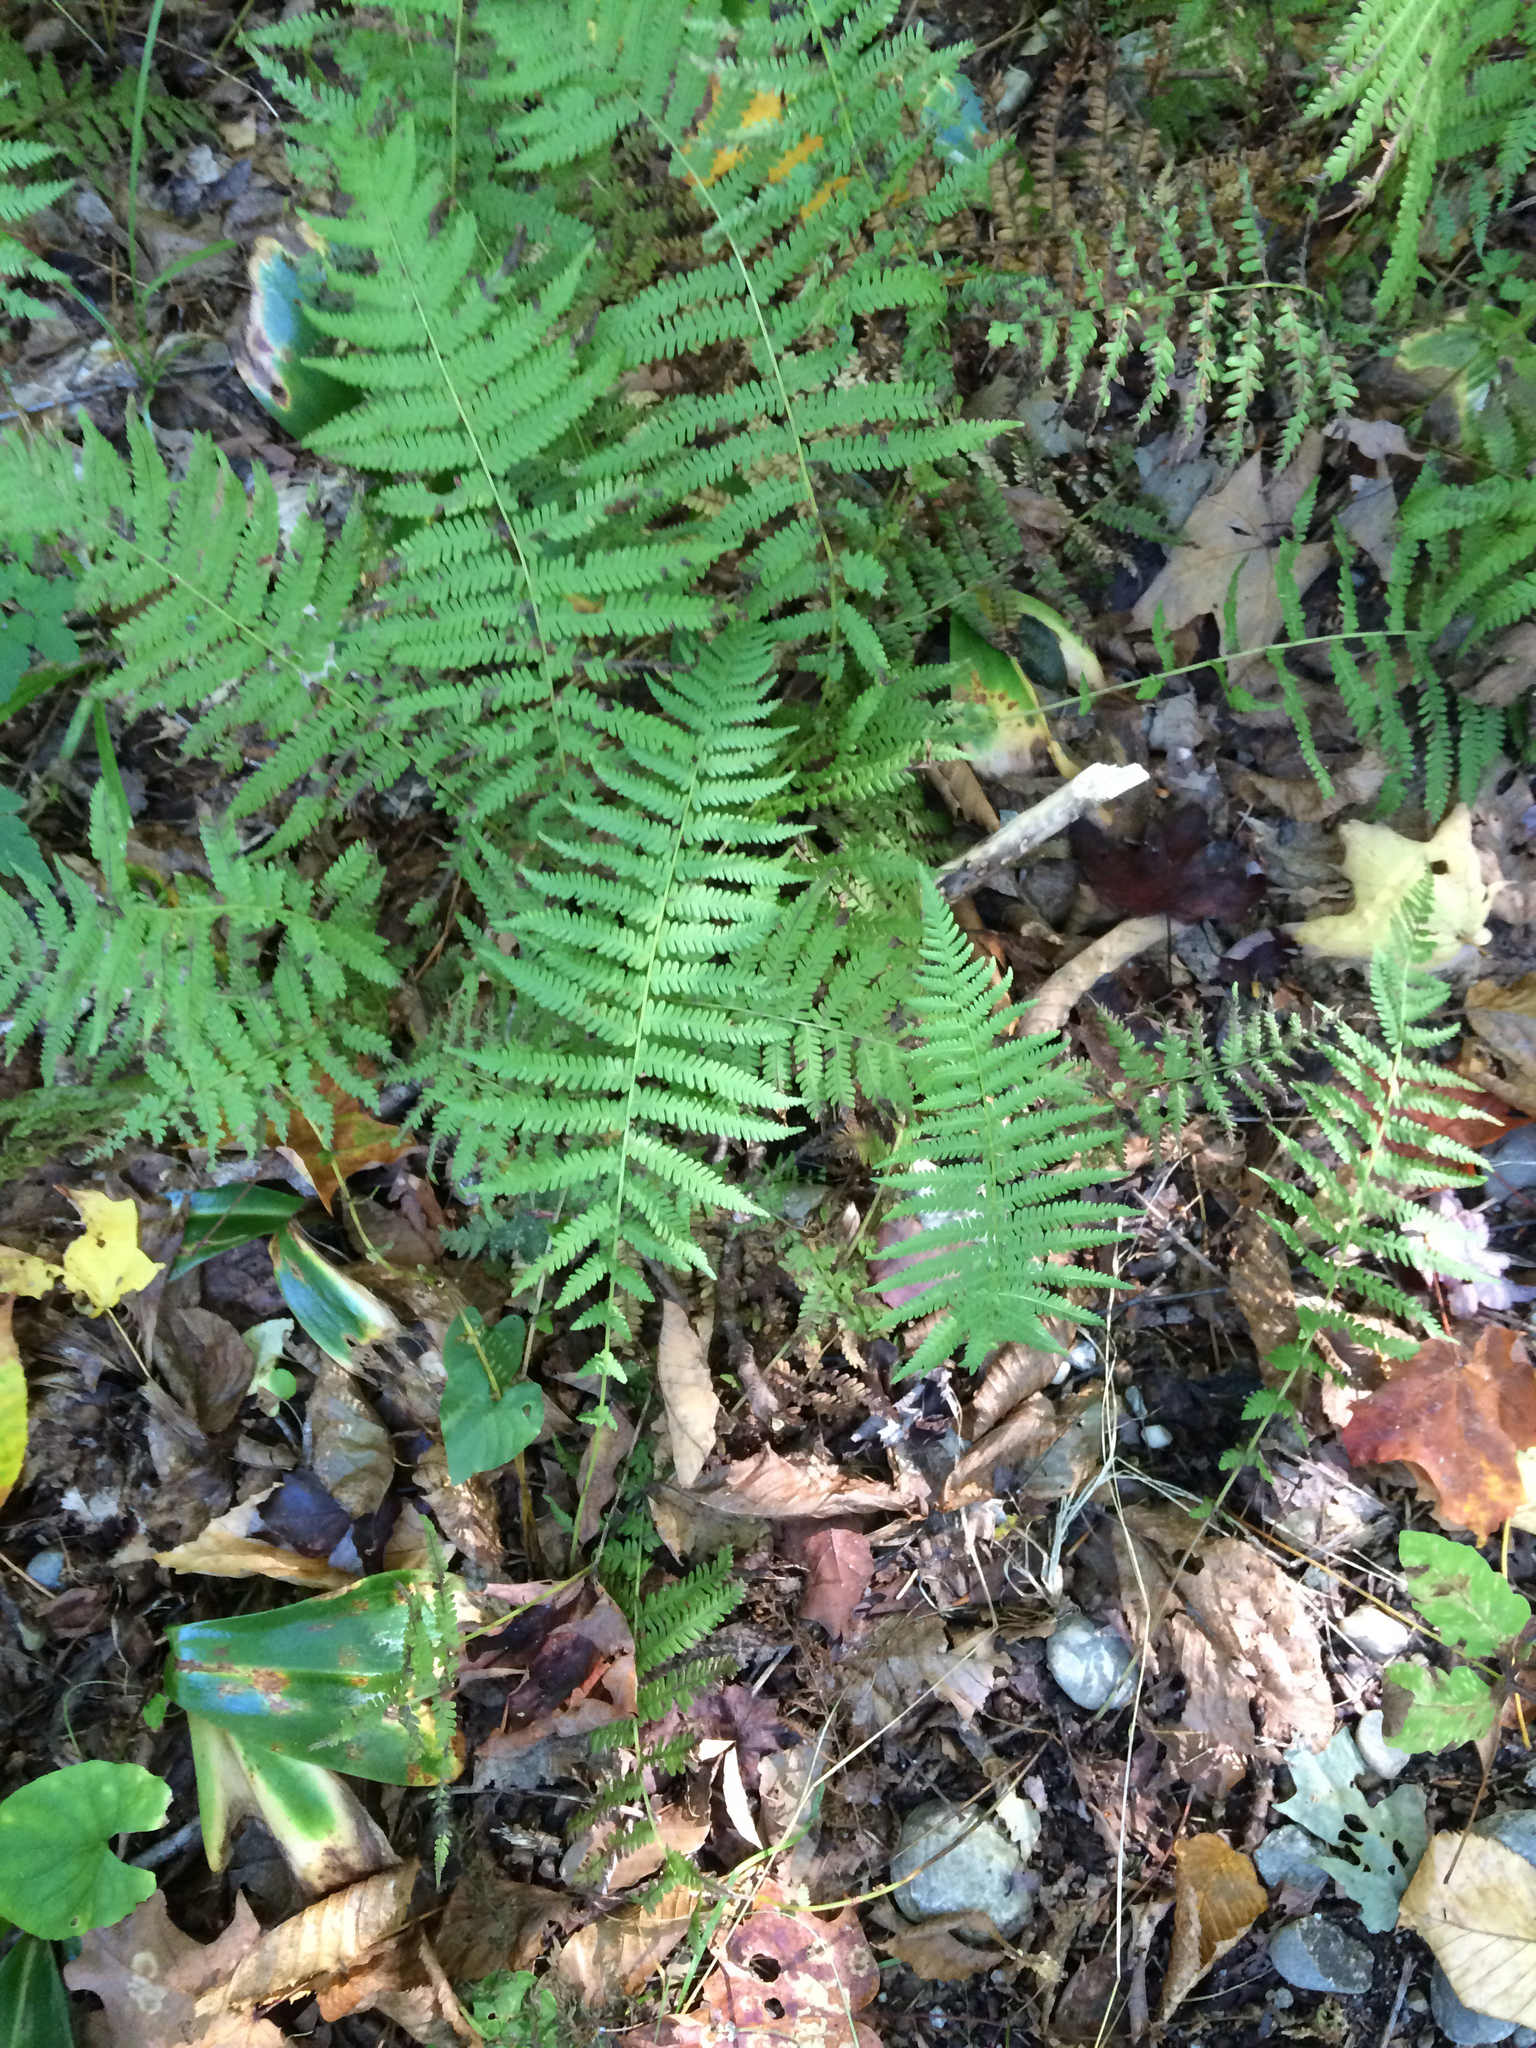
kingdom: Plantae
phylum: Tracheophyta
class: Polypodiopsida
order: Polypodiales
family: Thelypteridaceae
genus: Amauropelta
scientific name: Amauropelta noveboracensis
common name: New york fern
